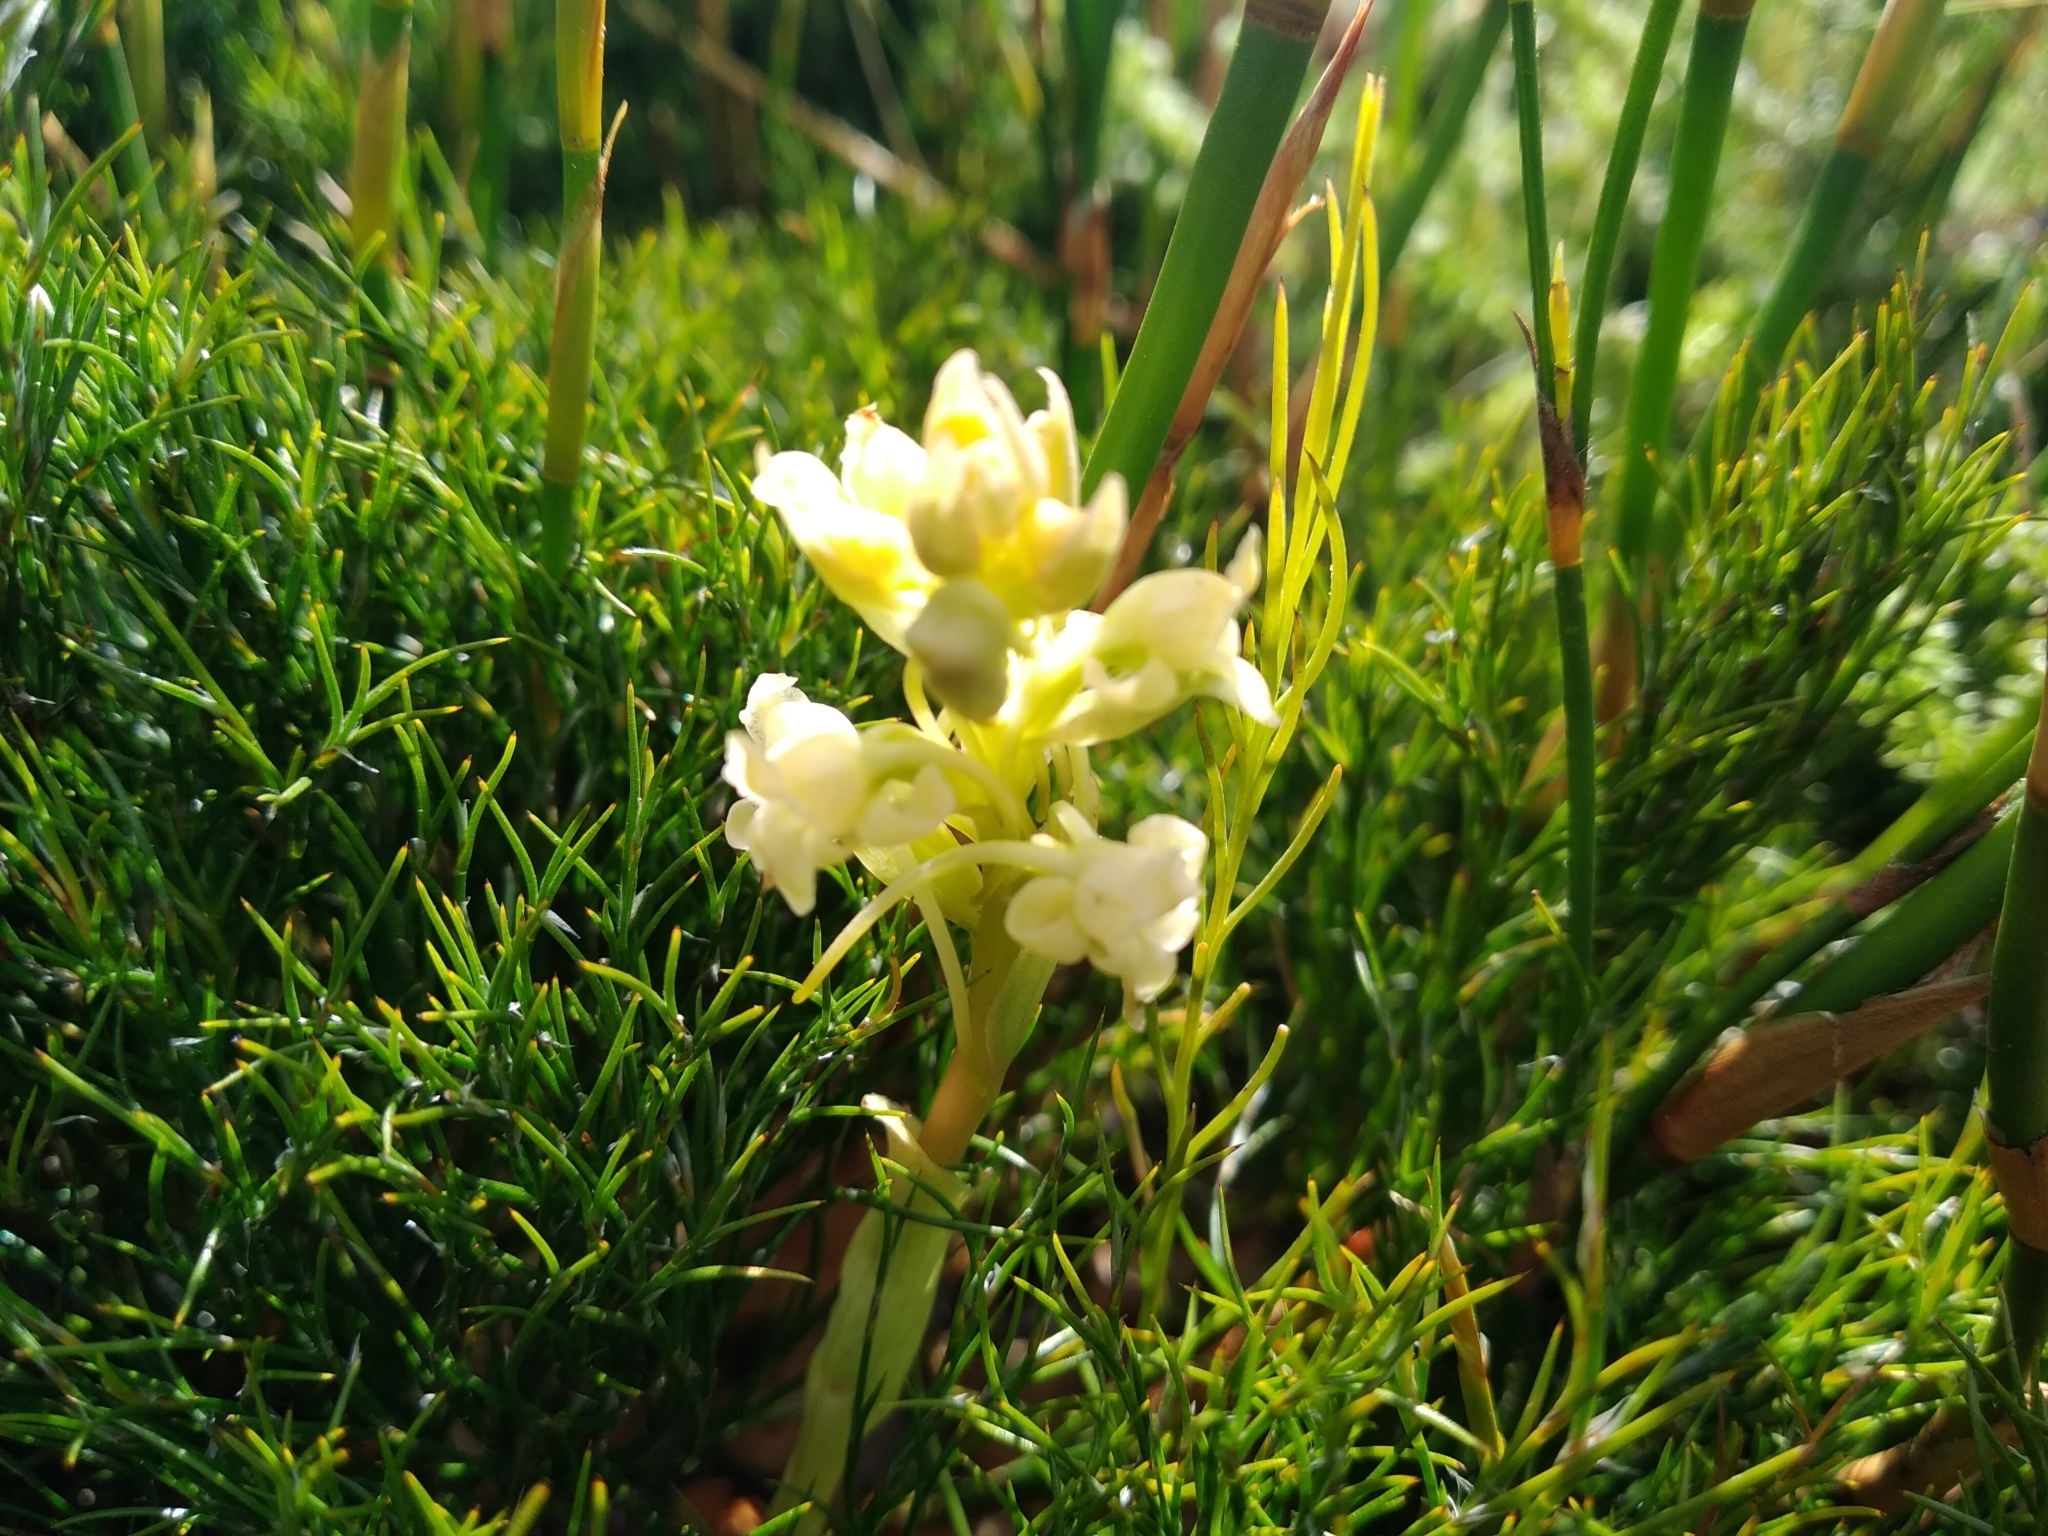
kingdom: Plantae
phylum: Tracheophyta
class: Liliopsida
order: Asparagales
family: Orchidaceae
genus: Satyrium
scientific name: Satyrium humile
